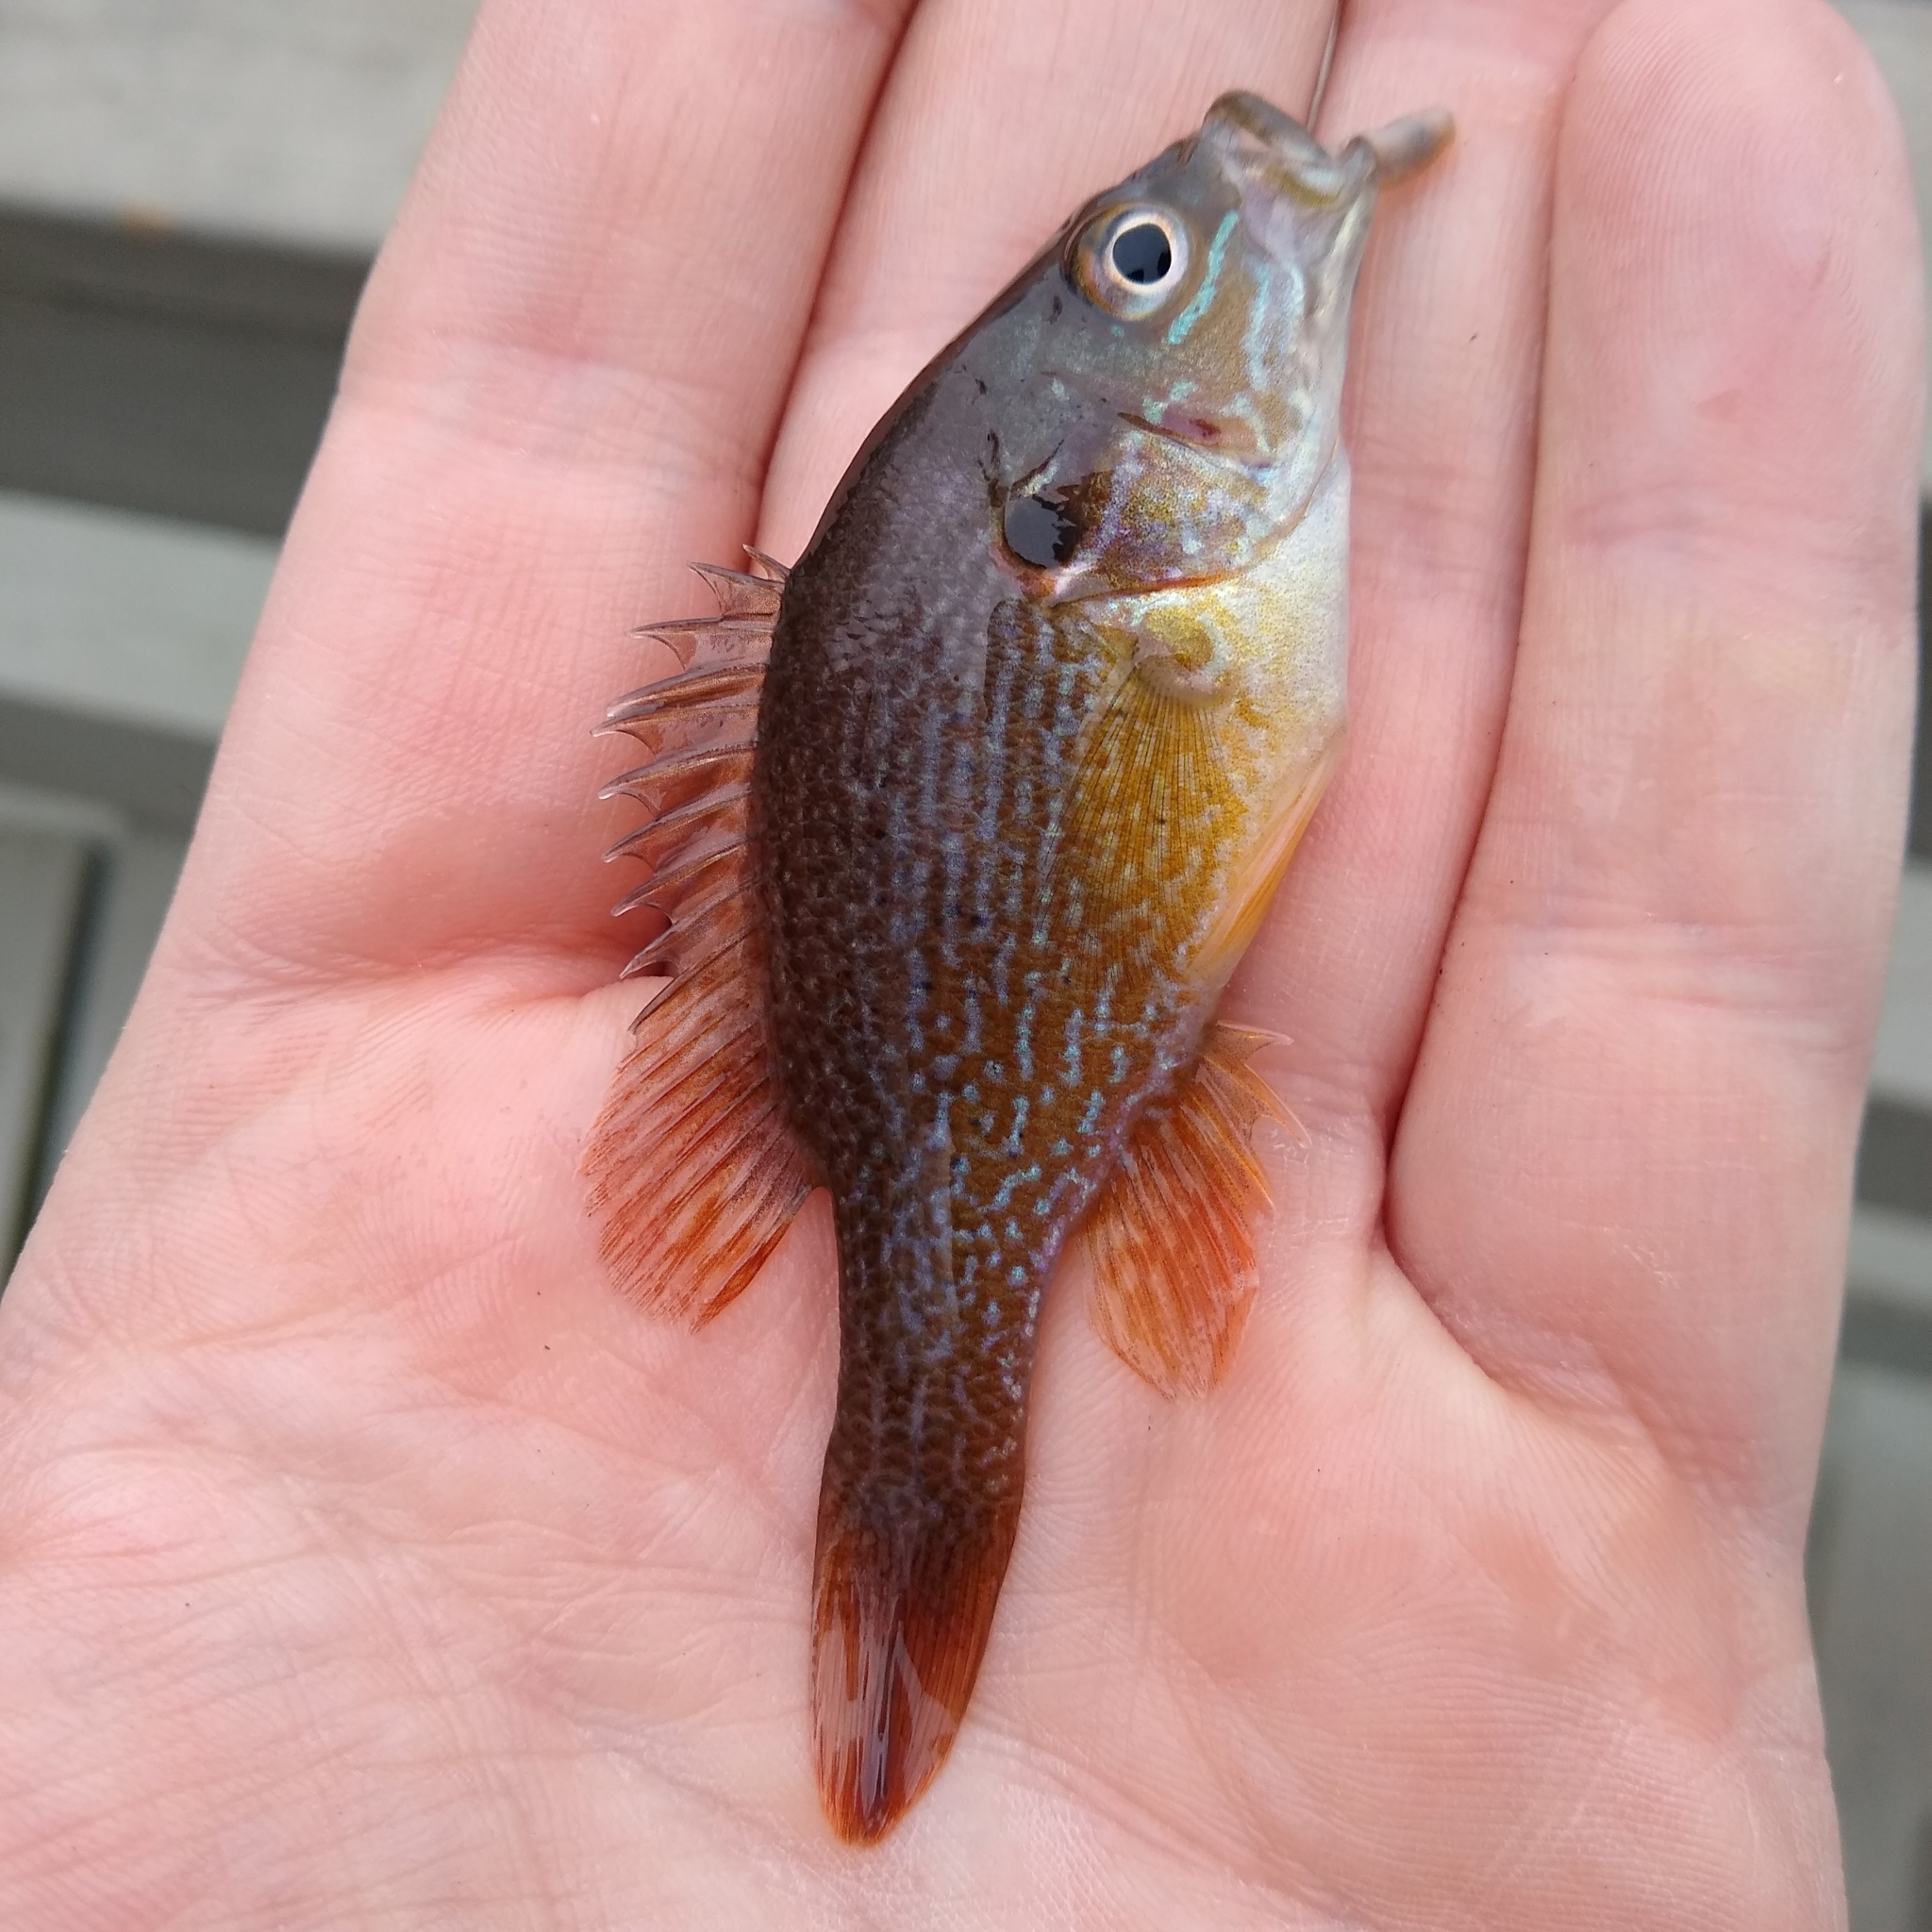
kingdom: Animalia
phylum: Chordata
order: Perciformes
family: Centrarchidae
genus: Lepomis
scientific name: Lepomis cyanellus
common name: Green sunfish
